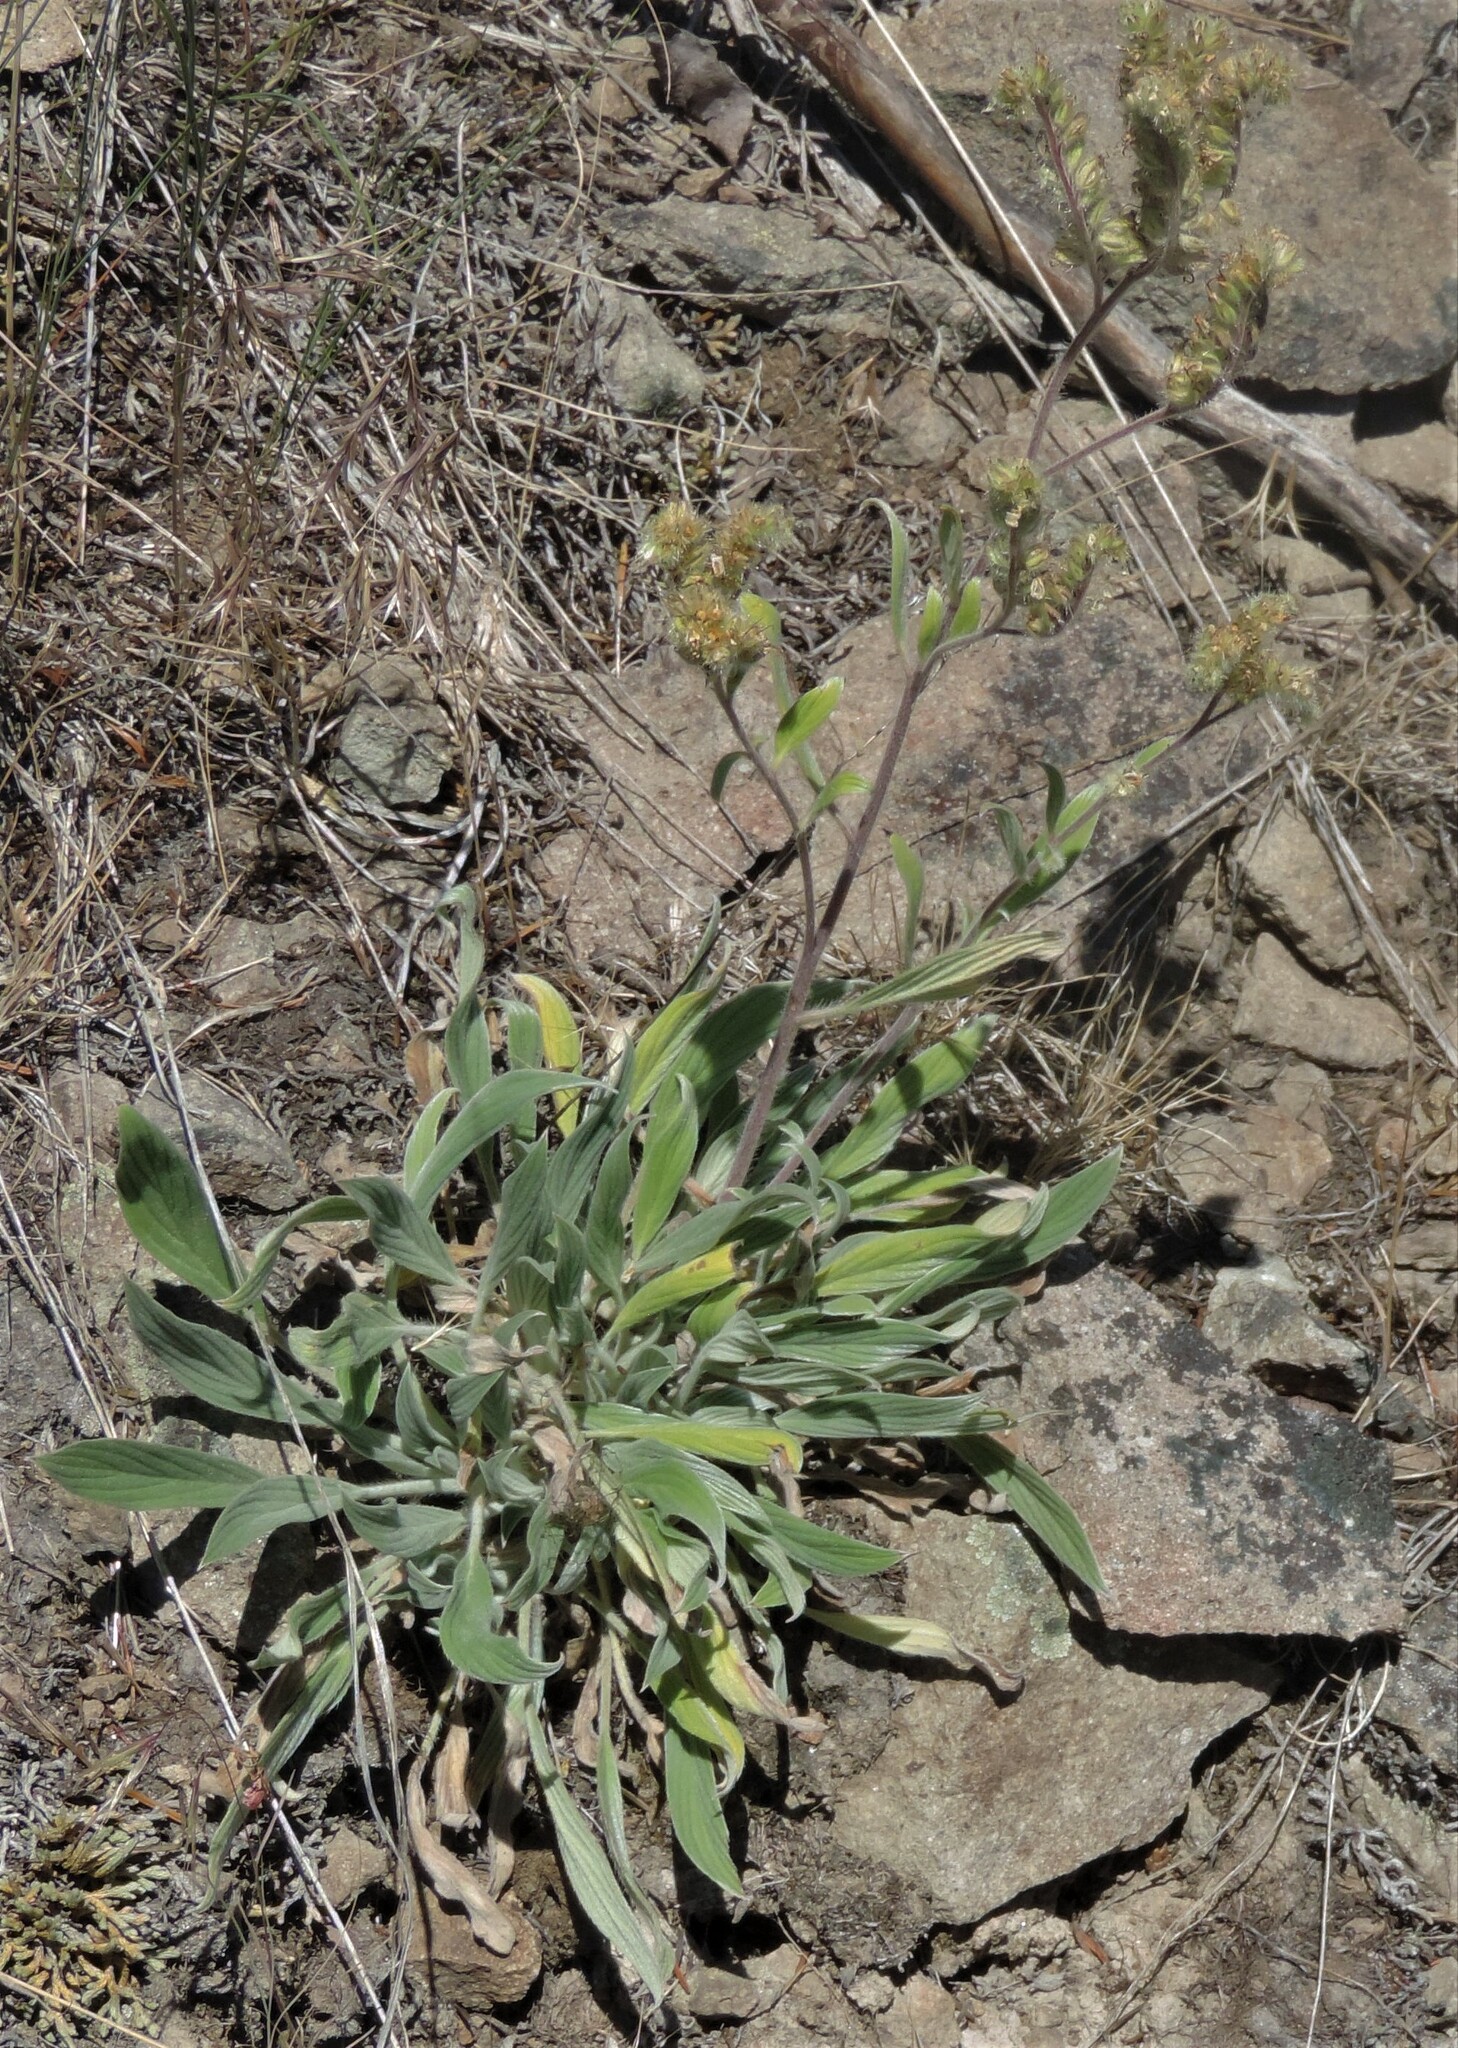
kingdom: Plantae
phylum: Tracheophyta
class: Magnoliopsida
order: Boraginales
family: Hydrophyllaceae
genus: Phacelia
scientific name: Phacelia hastata
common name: Silver-leaved phacelia
